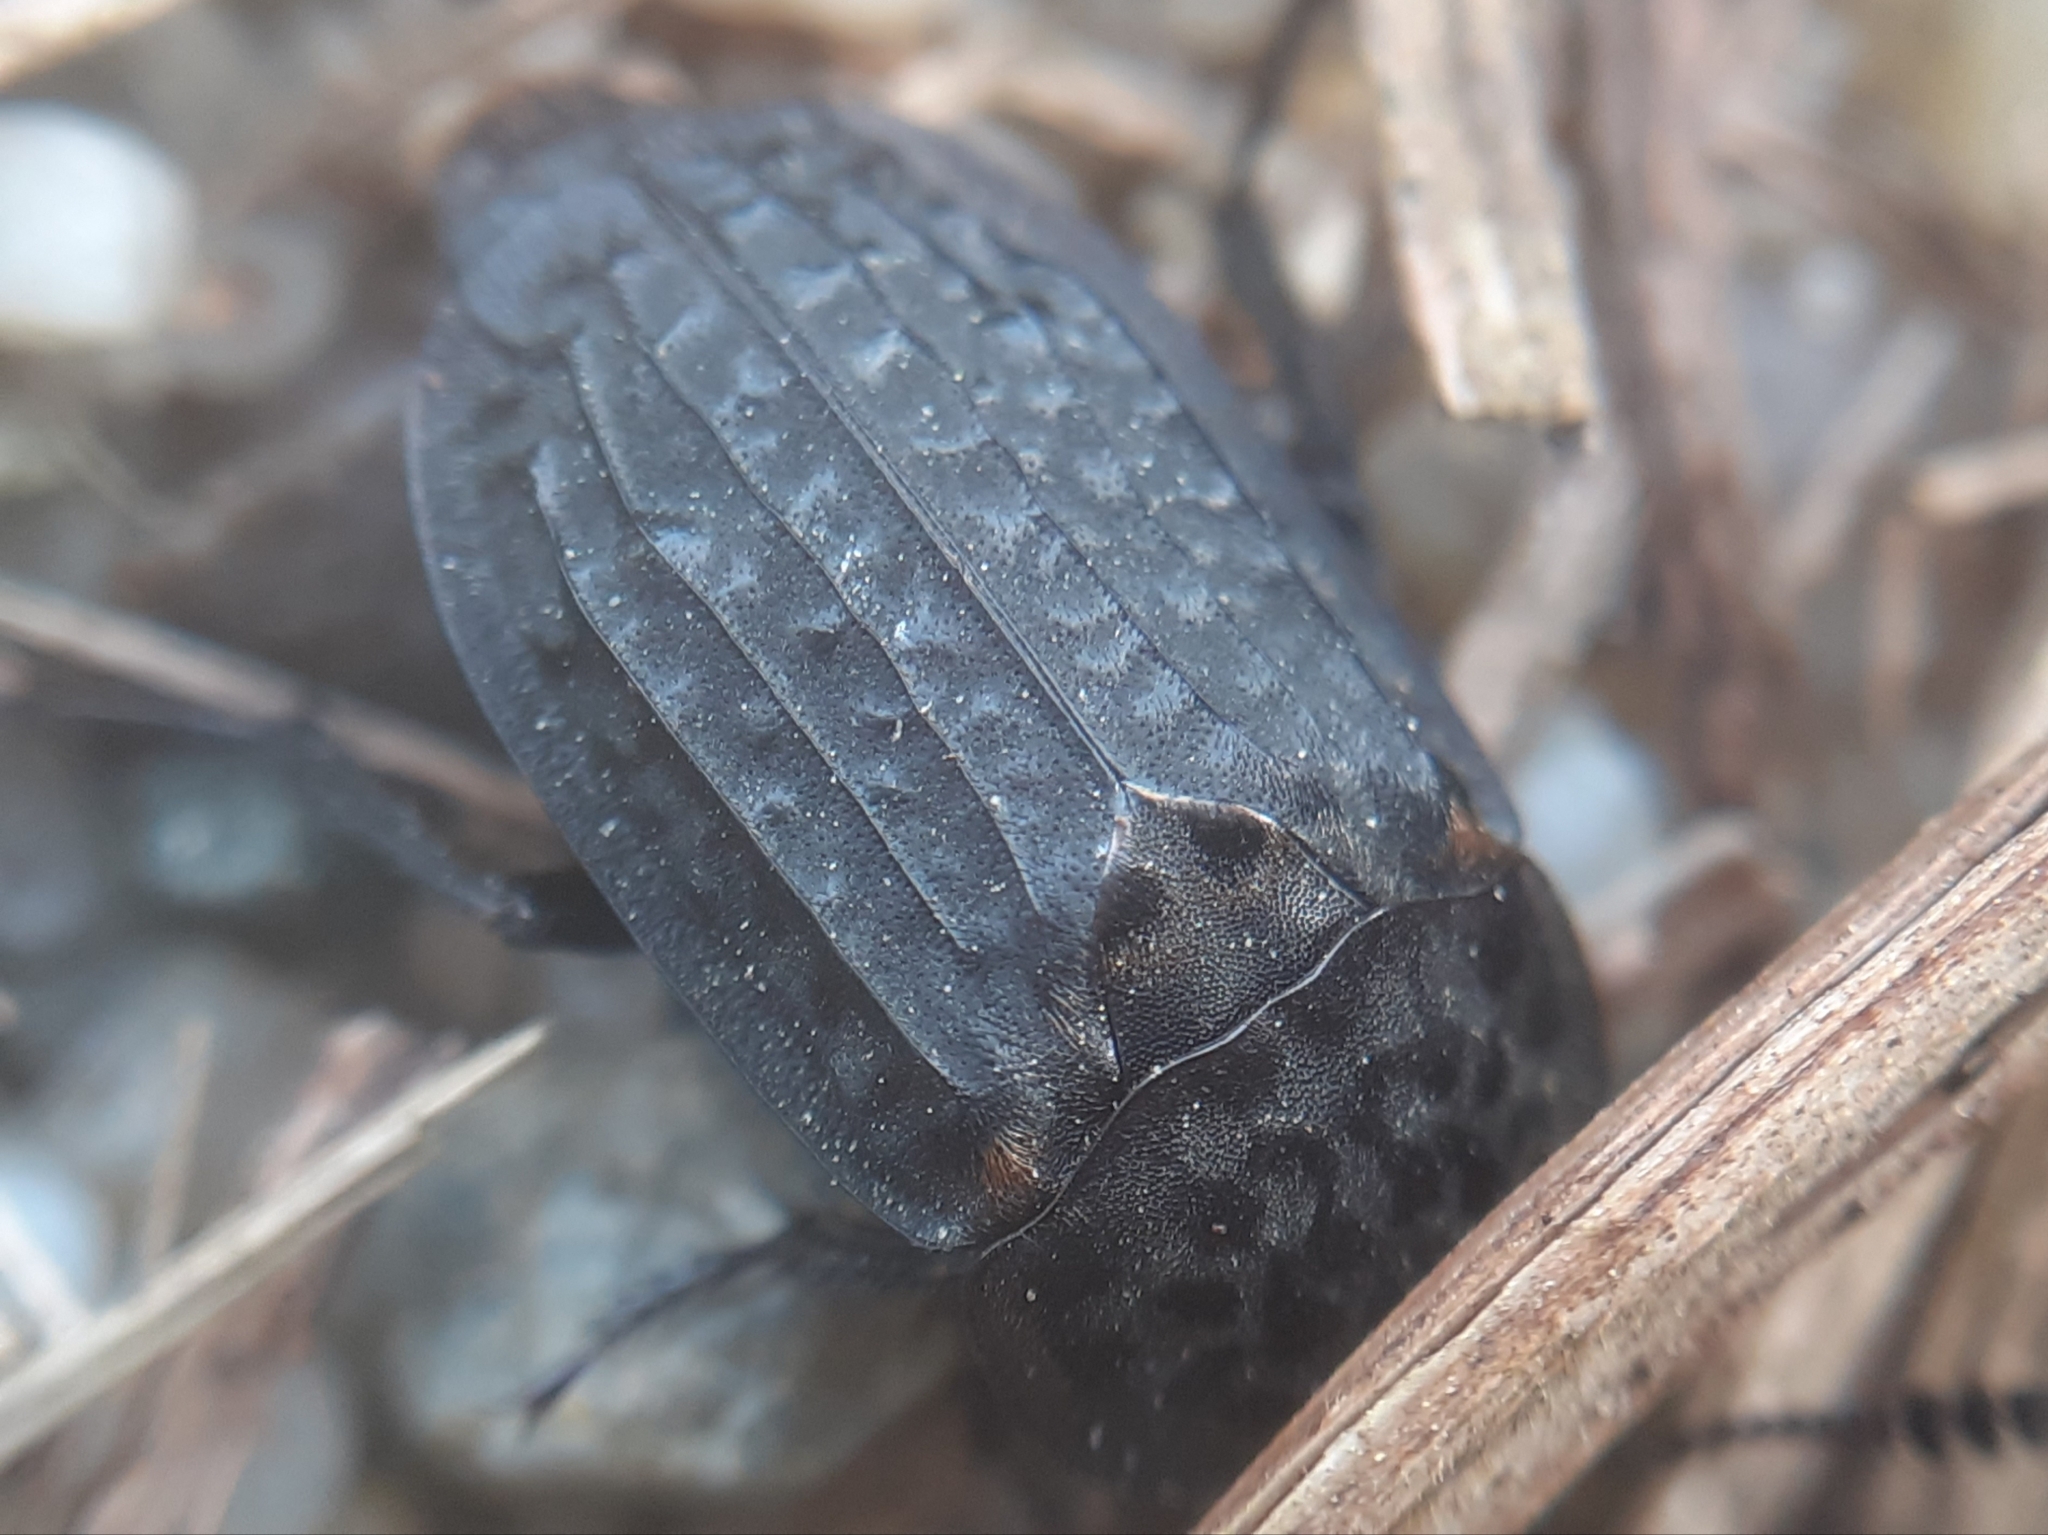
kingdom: Animalia
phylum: Arthropoda
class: Insecta
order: Coleoptera
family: Staphylinidae
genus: Thanatophilus
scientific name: Thanatophilus rugosus
